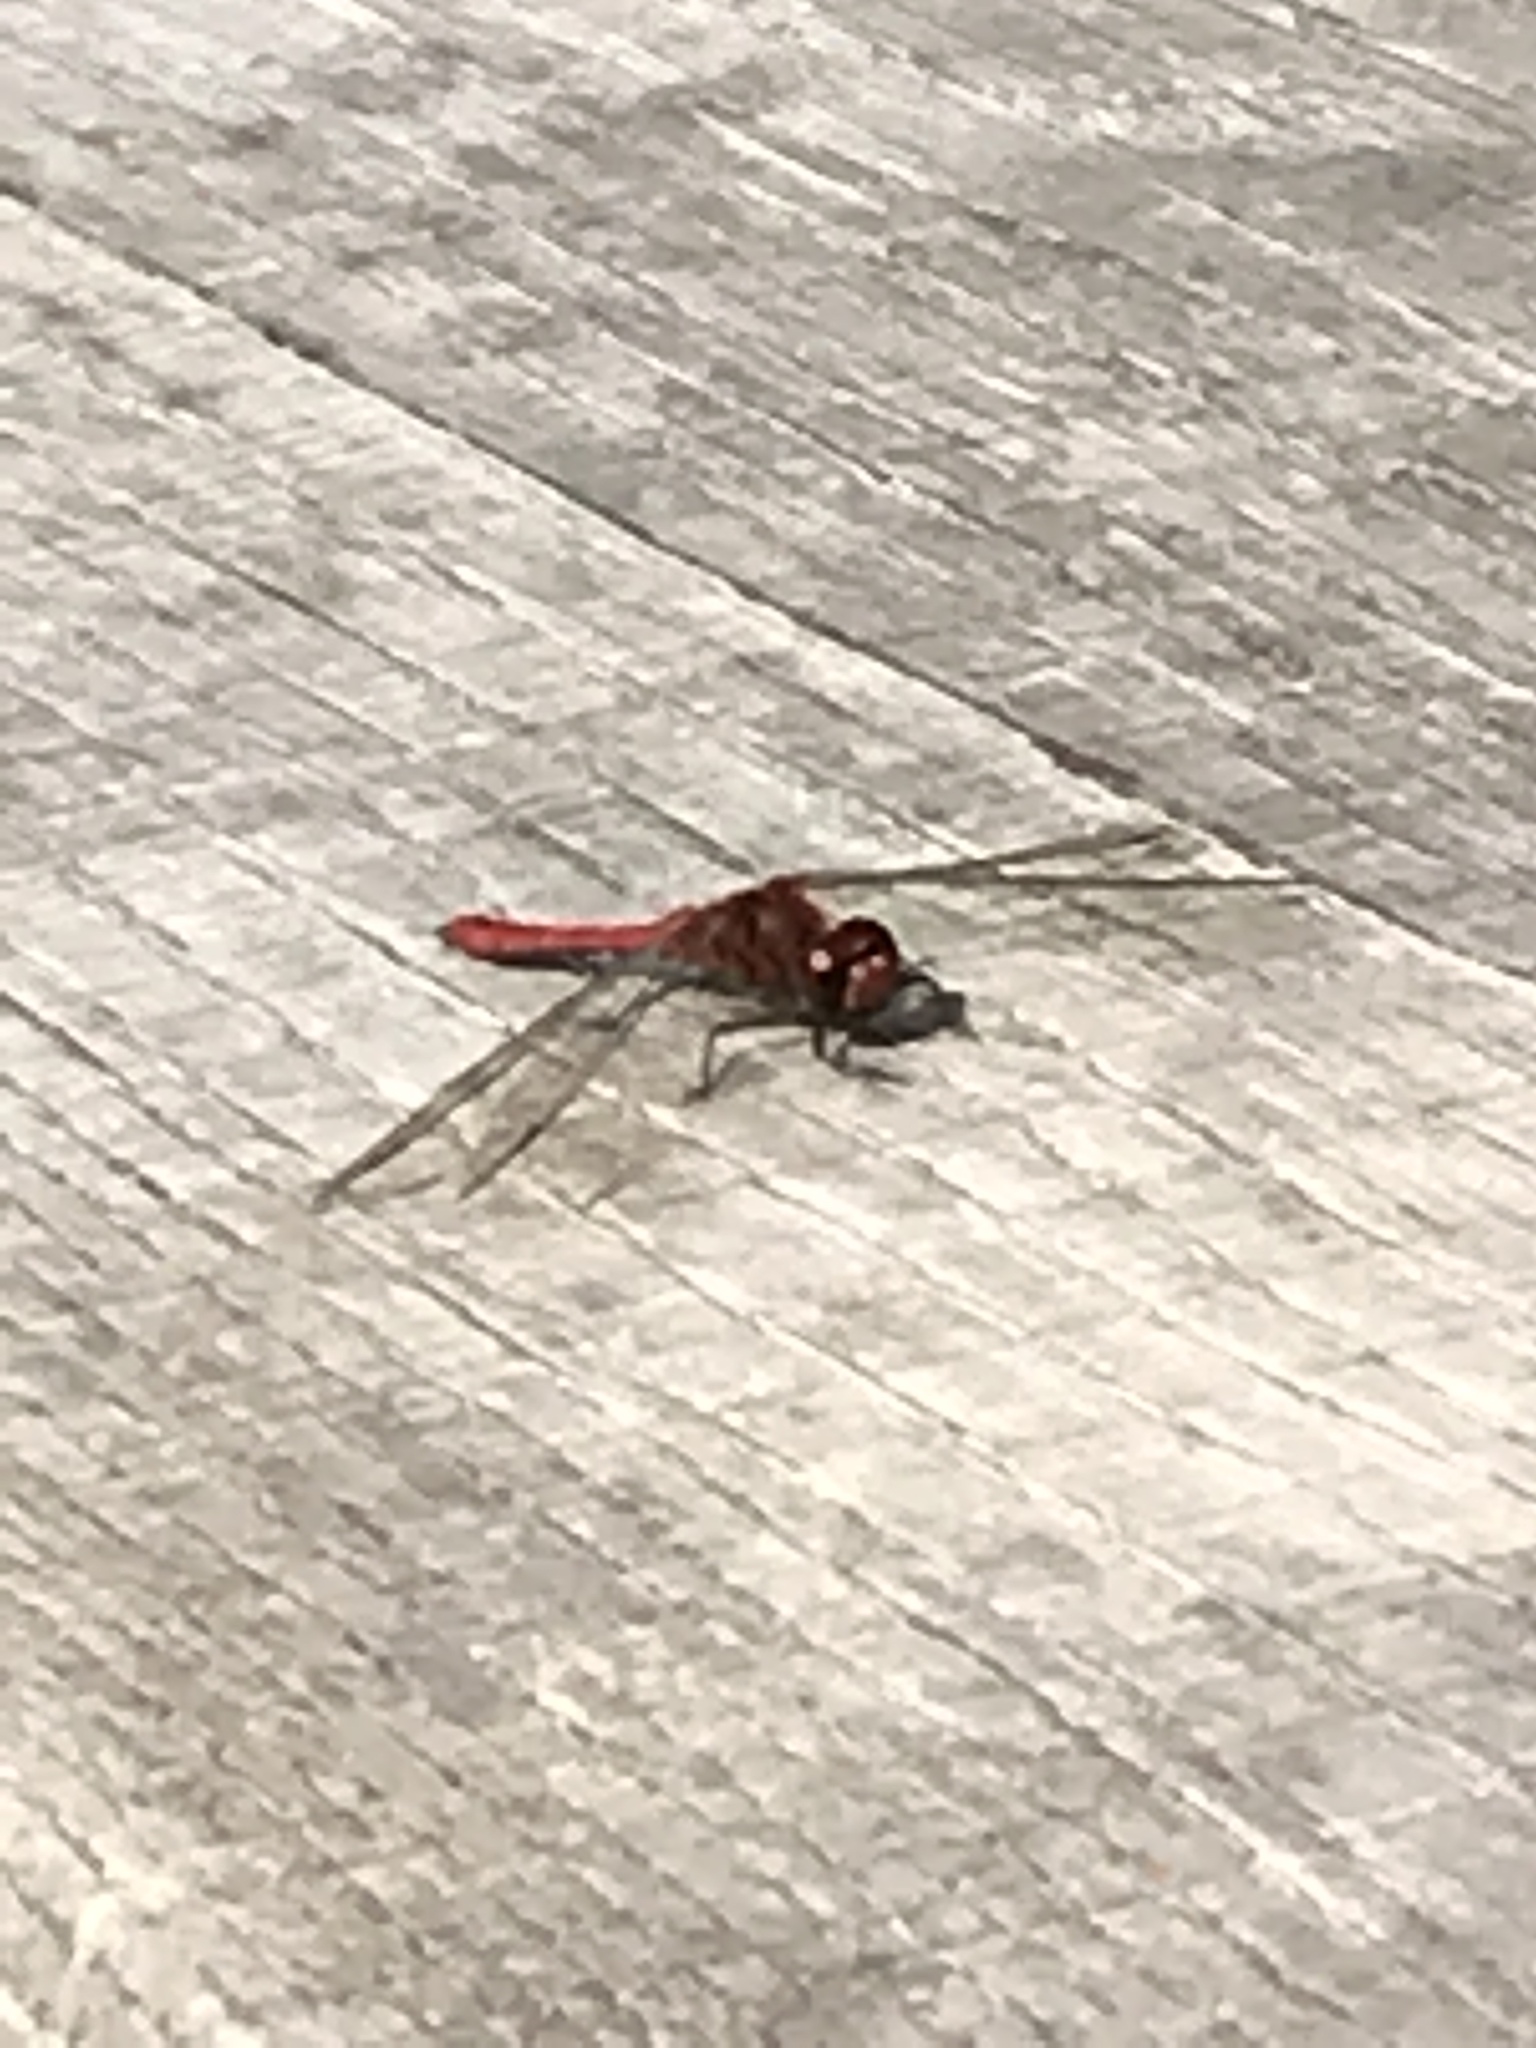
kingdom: Animalia
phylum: Arthropoda
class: Insecta
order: Odonata
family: Libellulidae
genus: Sympetrum
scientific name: Sympetrum sanguineum
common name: Ruddy darter
